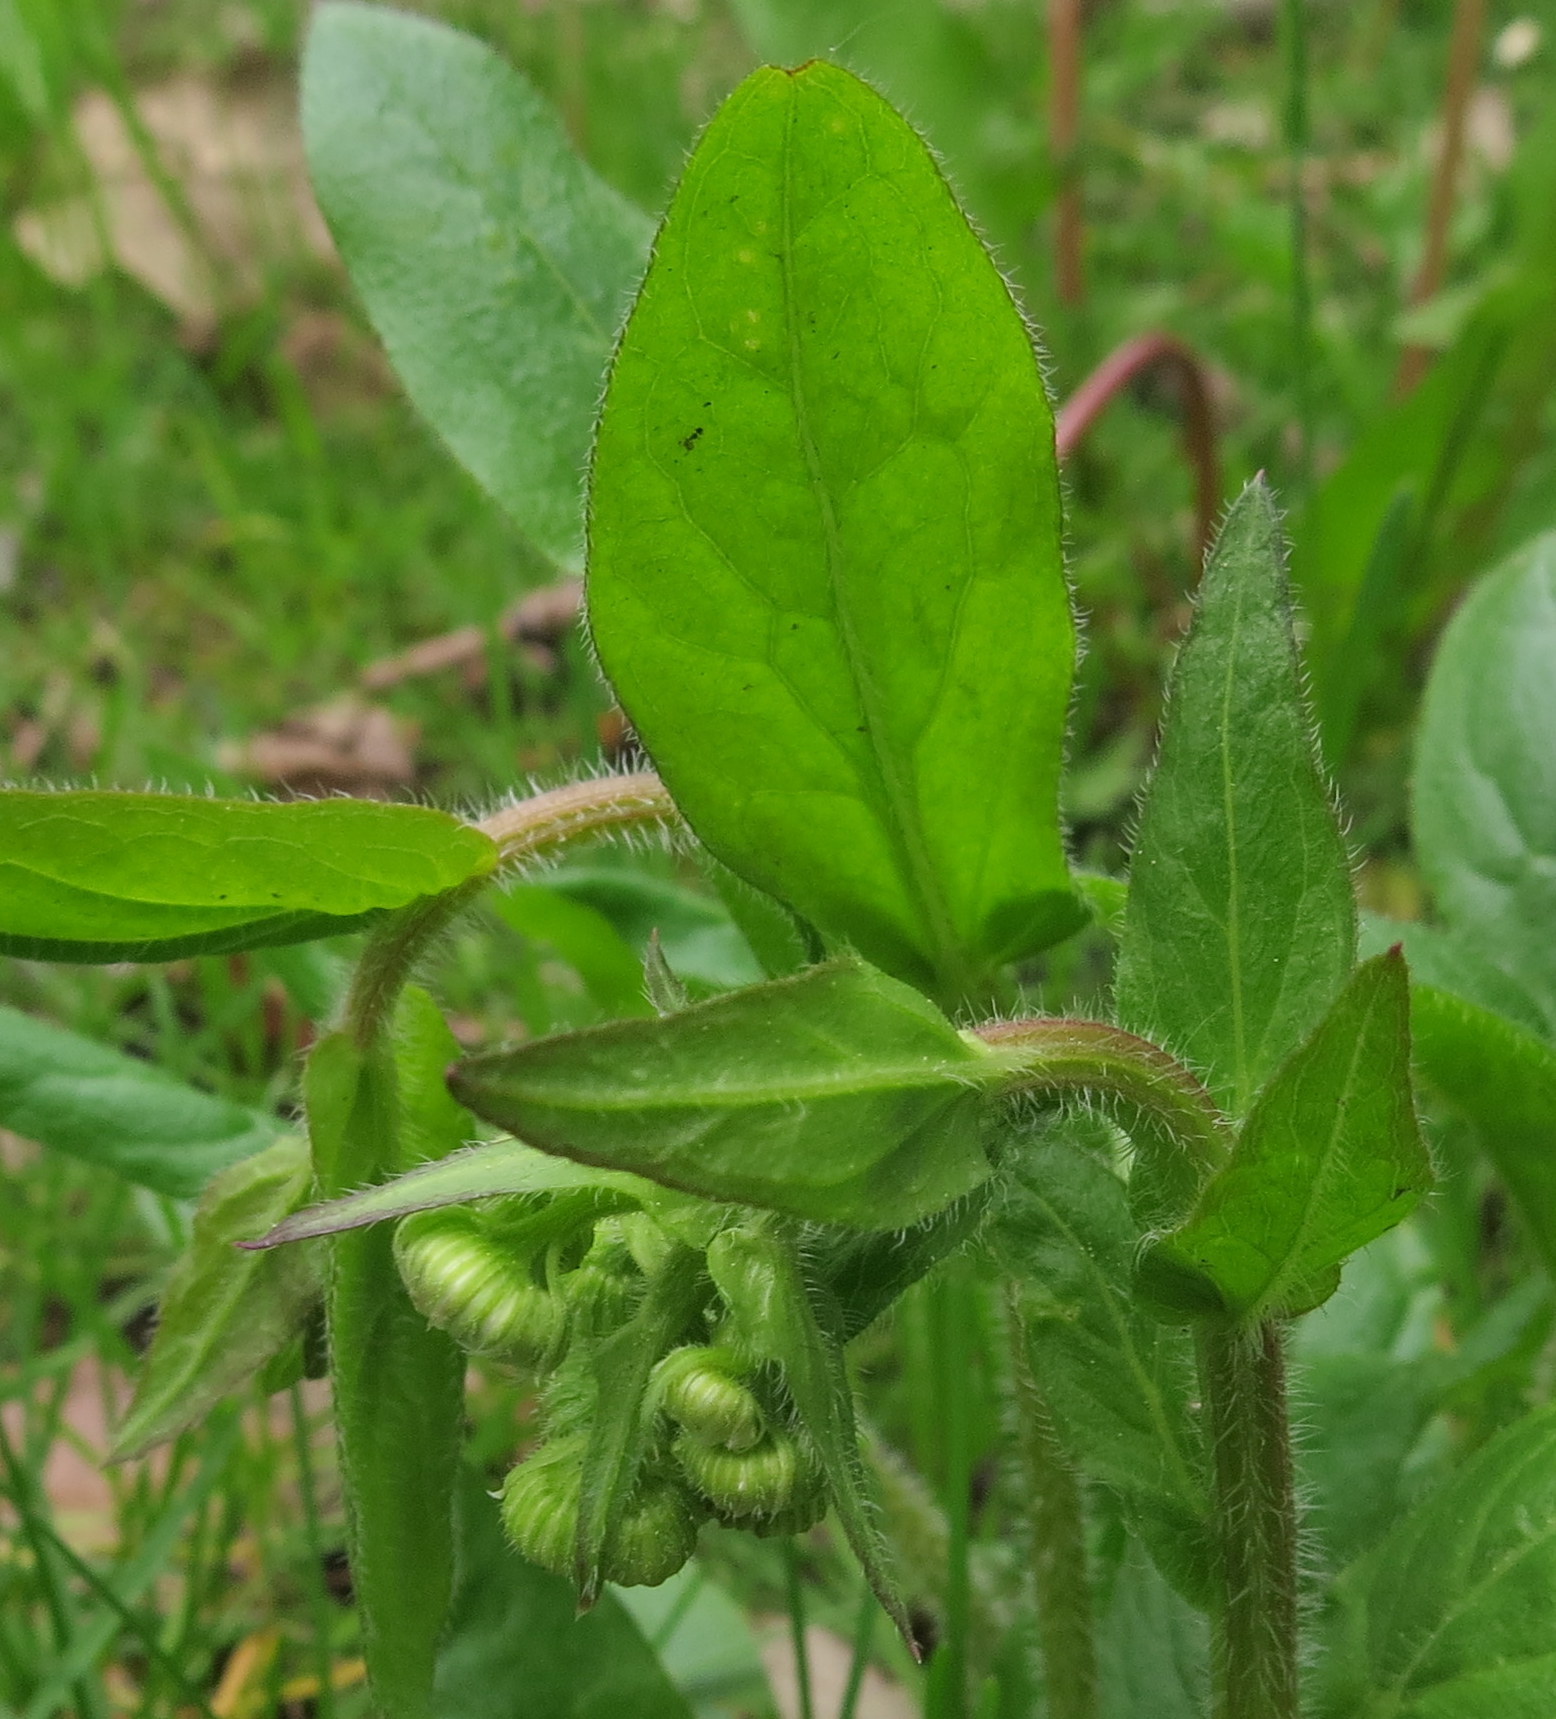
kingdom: Plantae
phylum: Tracheophyta
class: Magnoliopsida
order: Asterales
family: Asteraceae
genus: Erigeron
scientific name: Erigeron philadelphicus
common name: Robin's-plantain
